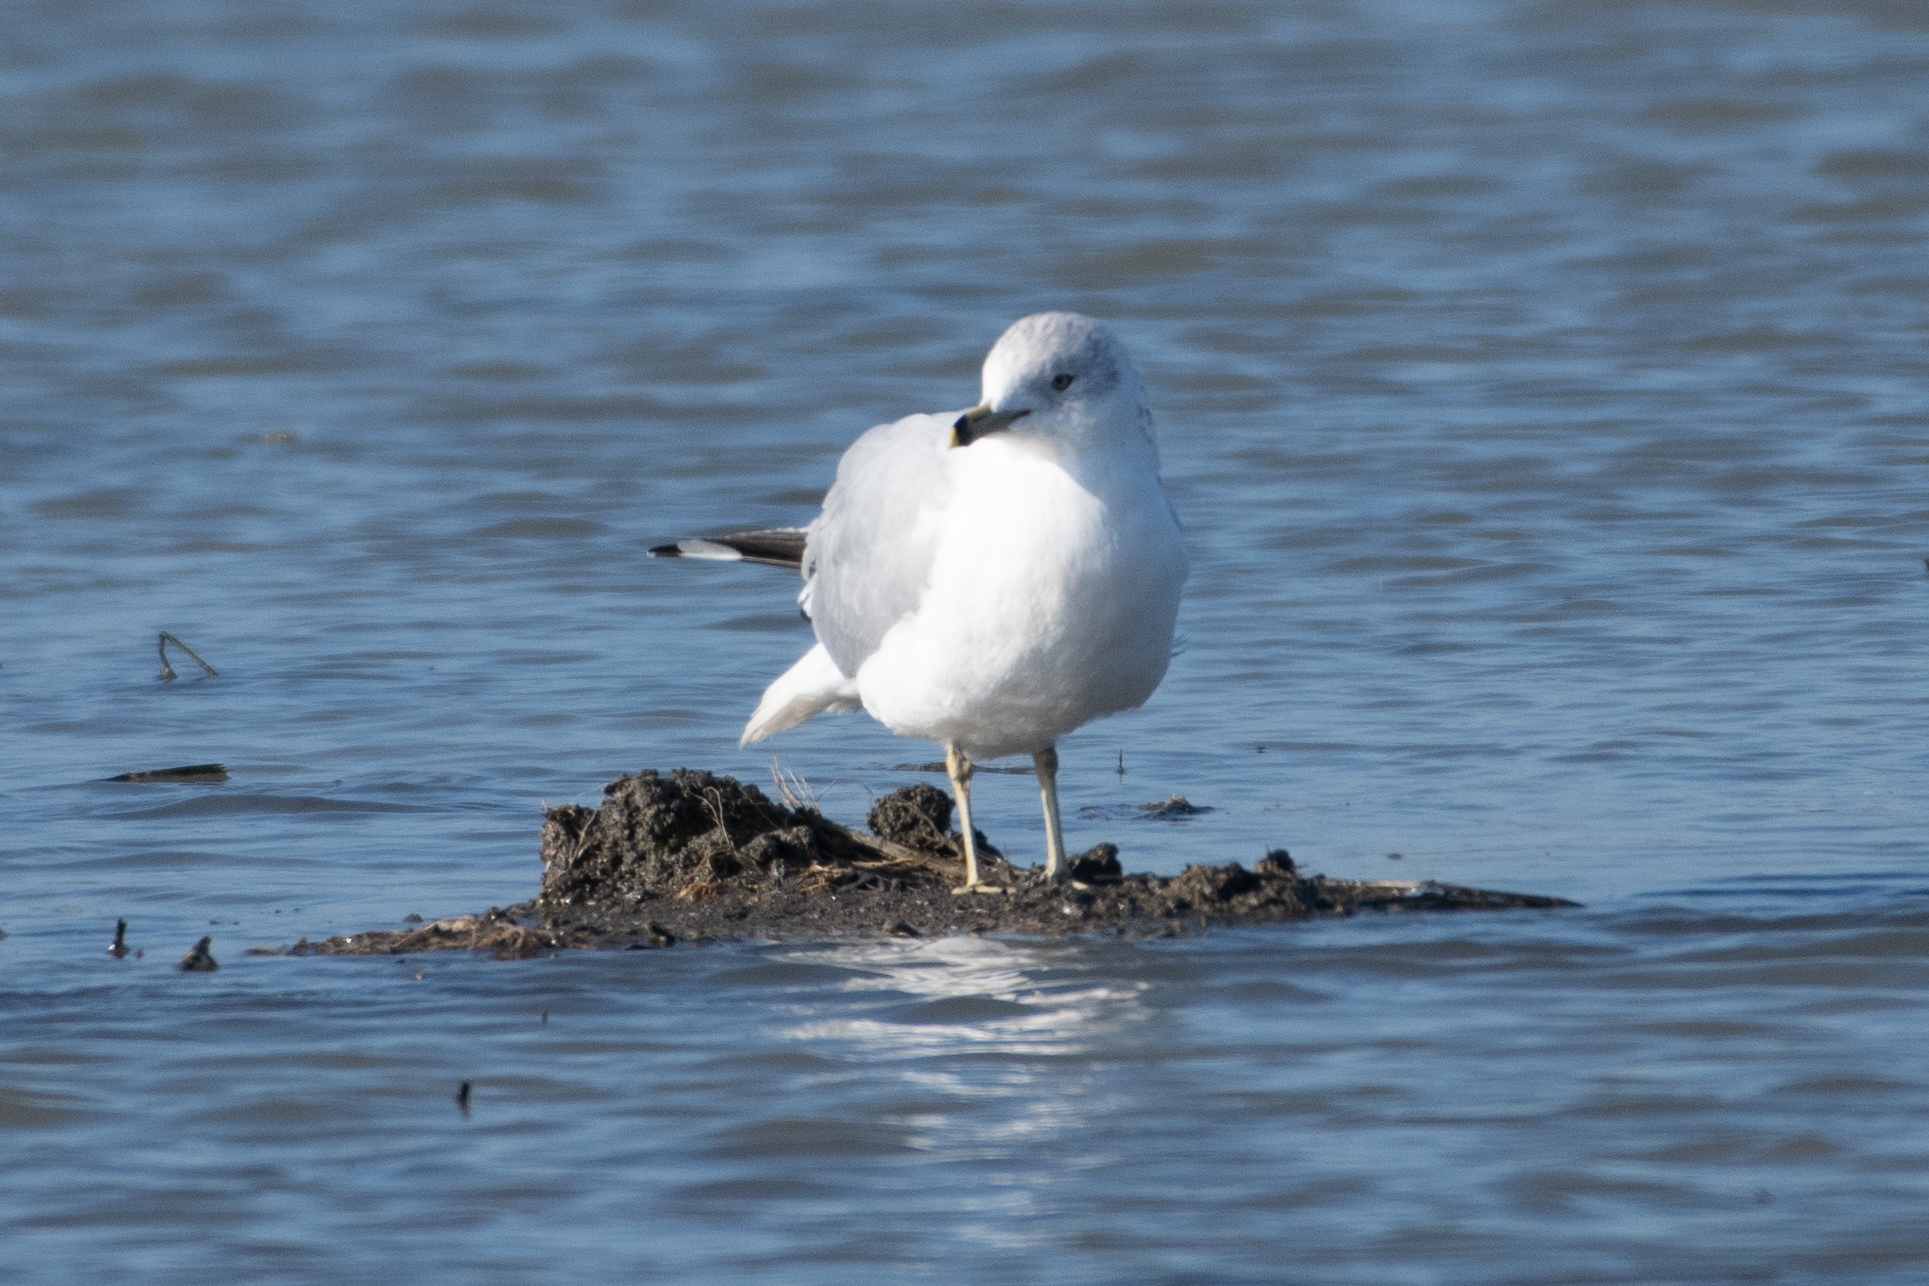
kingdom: Animalia
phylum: Chordata
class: Aves
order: Charadriiformes
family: Laridae
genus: Larus
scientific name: Larus delawarensis
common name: Ring-billed gull
